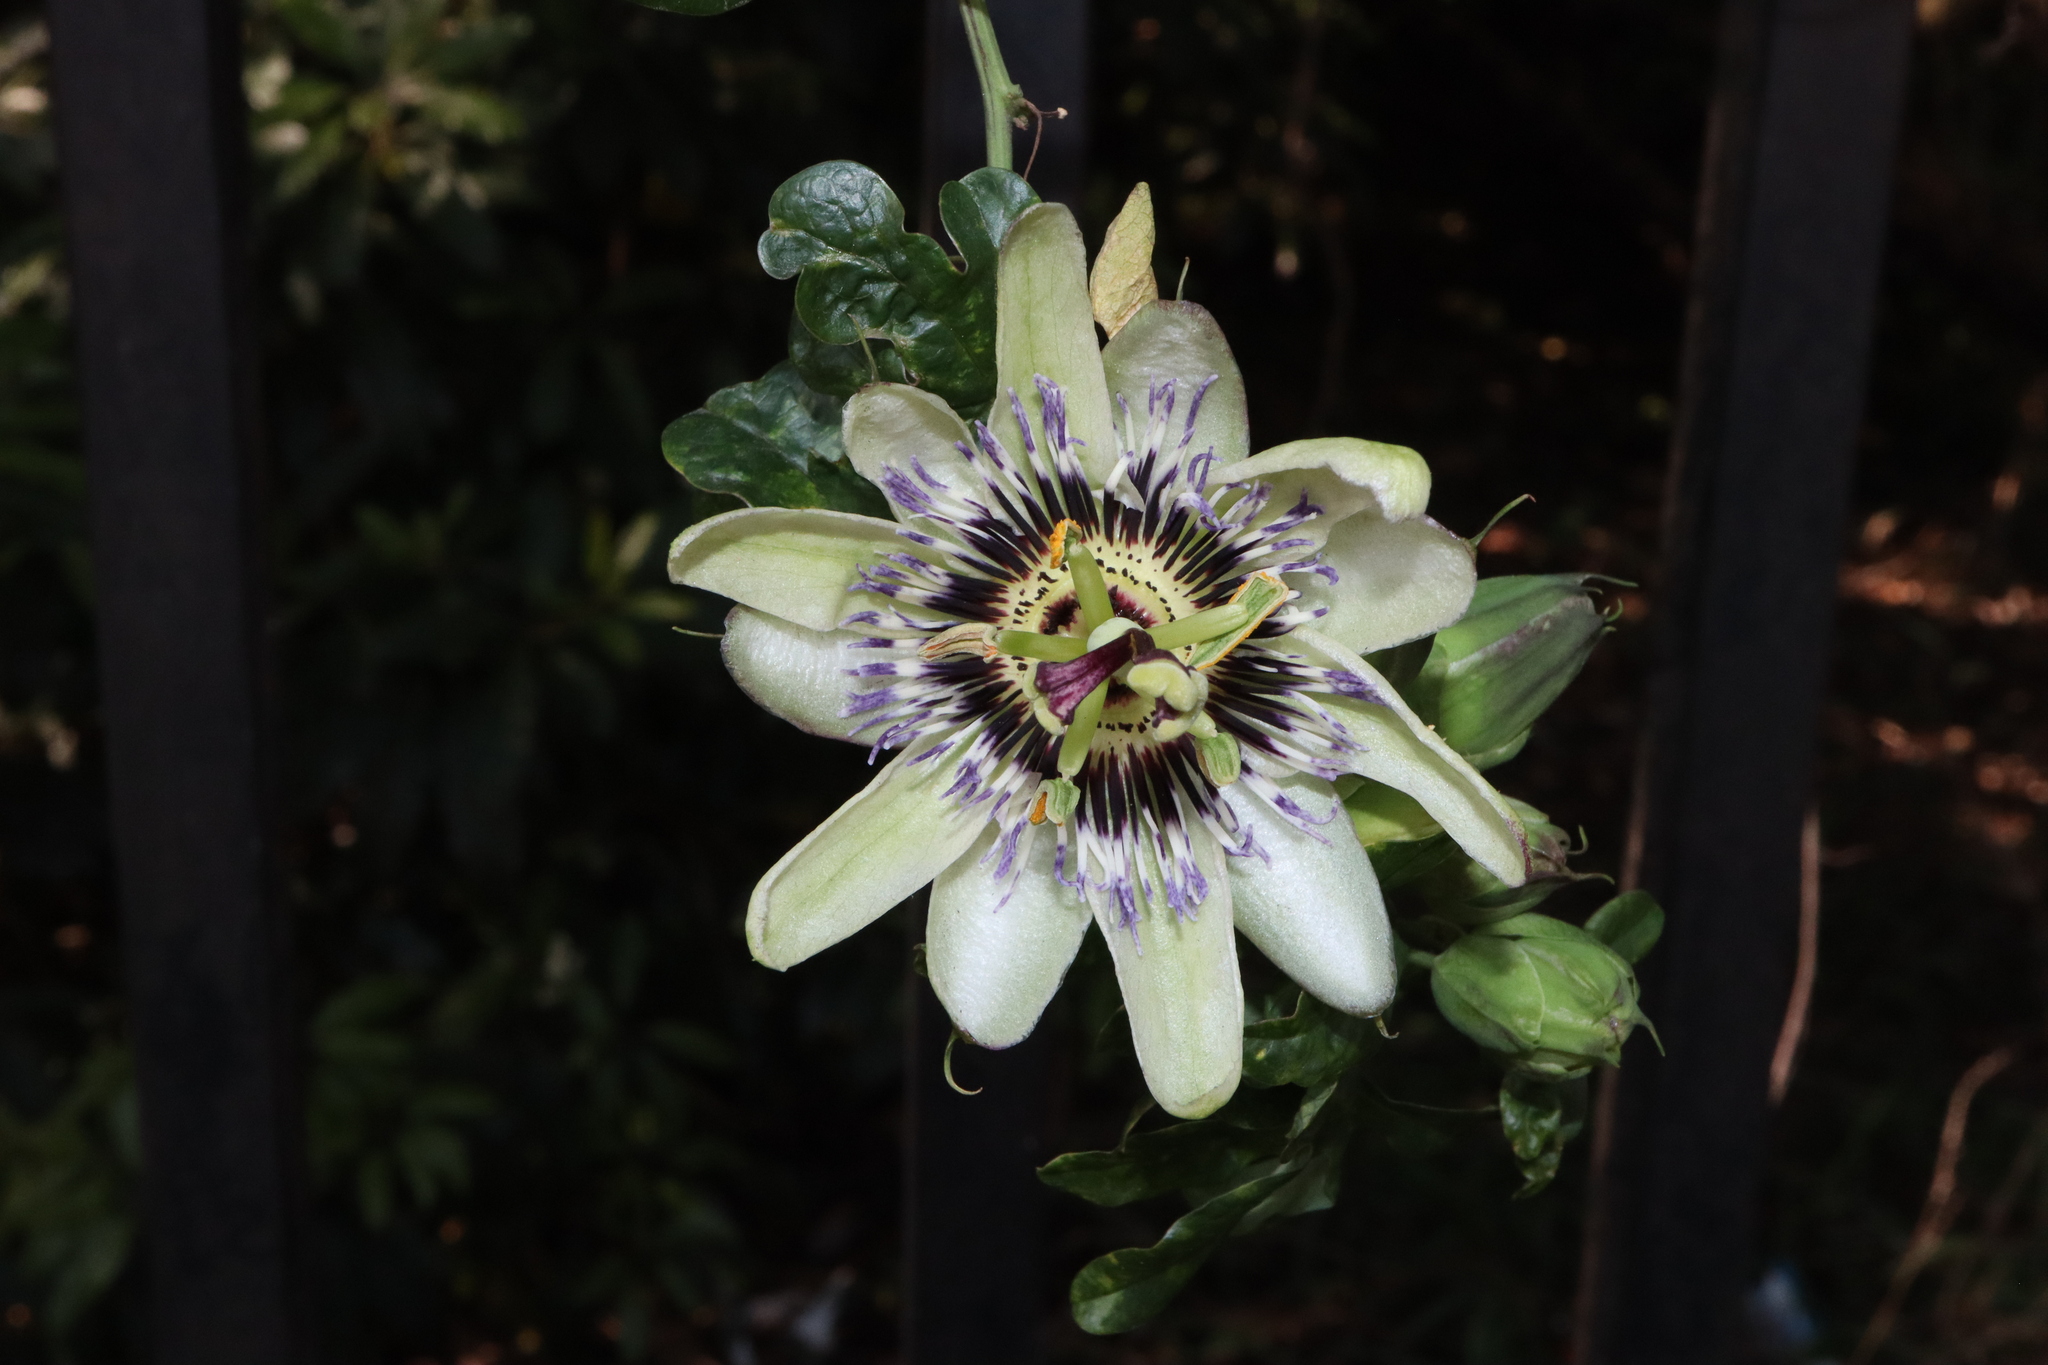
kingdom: Plantae
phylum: Tracheophyta
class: Magnoliopsida
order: Malpighiales
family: Passifloraceae
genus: Passiflora
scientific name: Passiflora caerulea
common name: Blue passionflower
